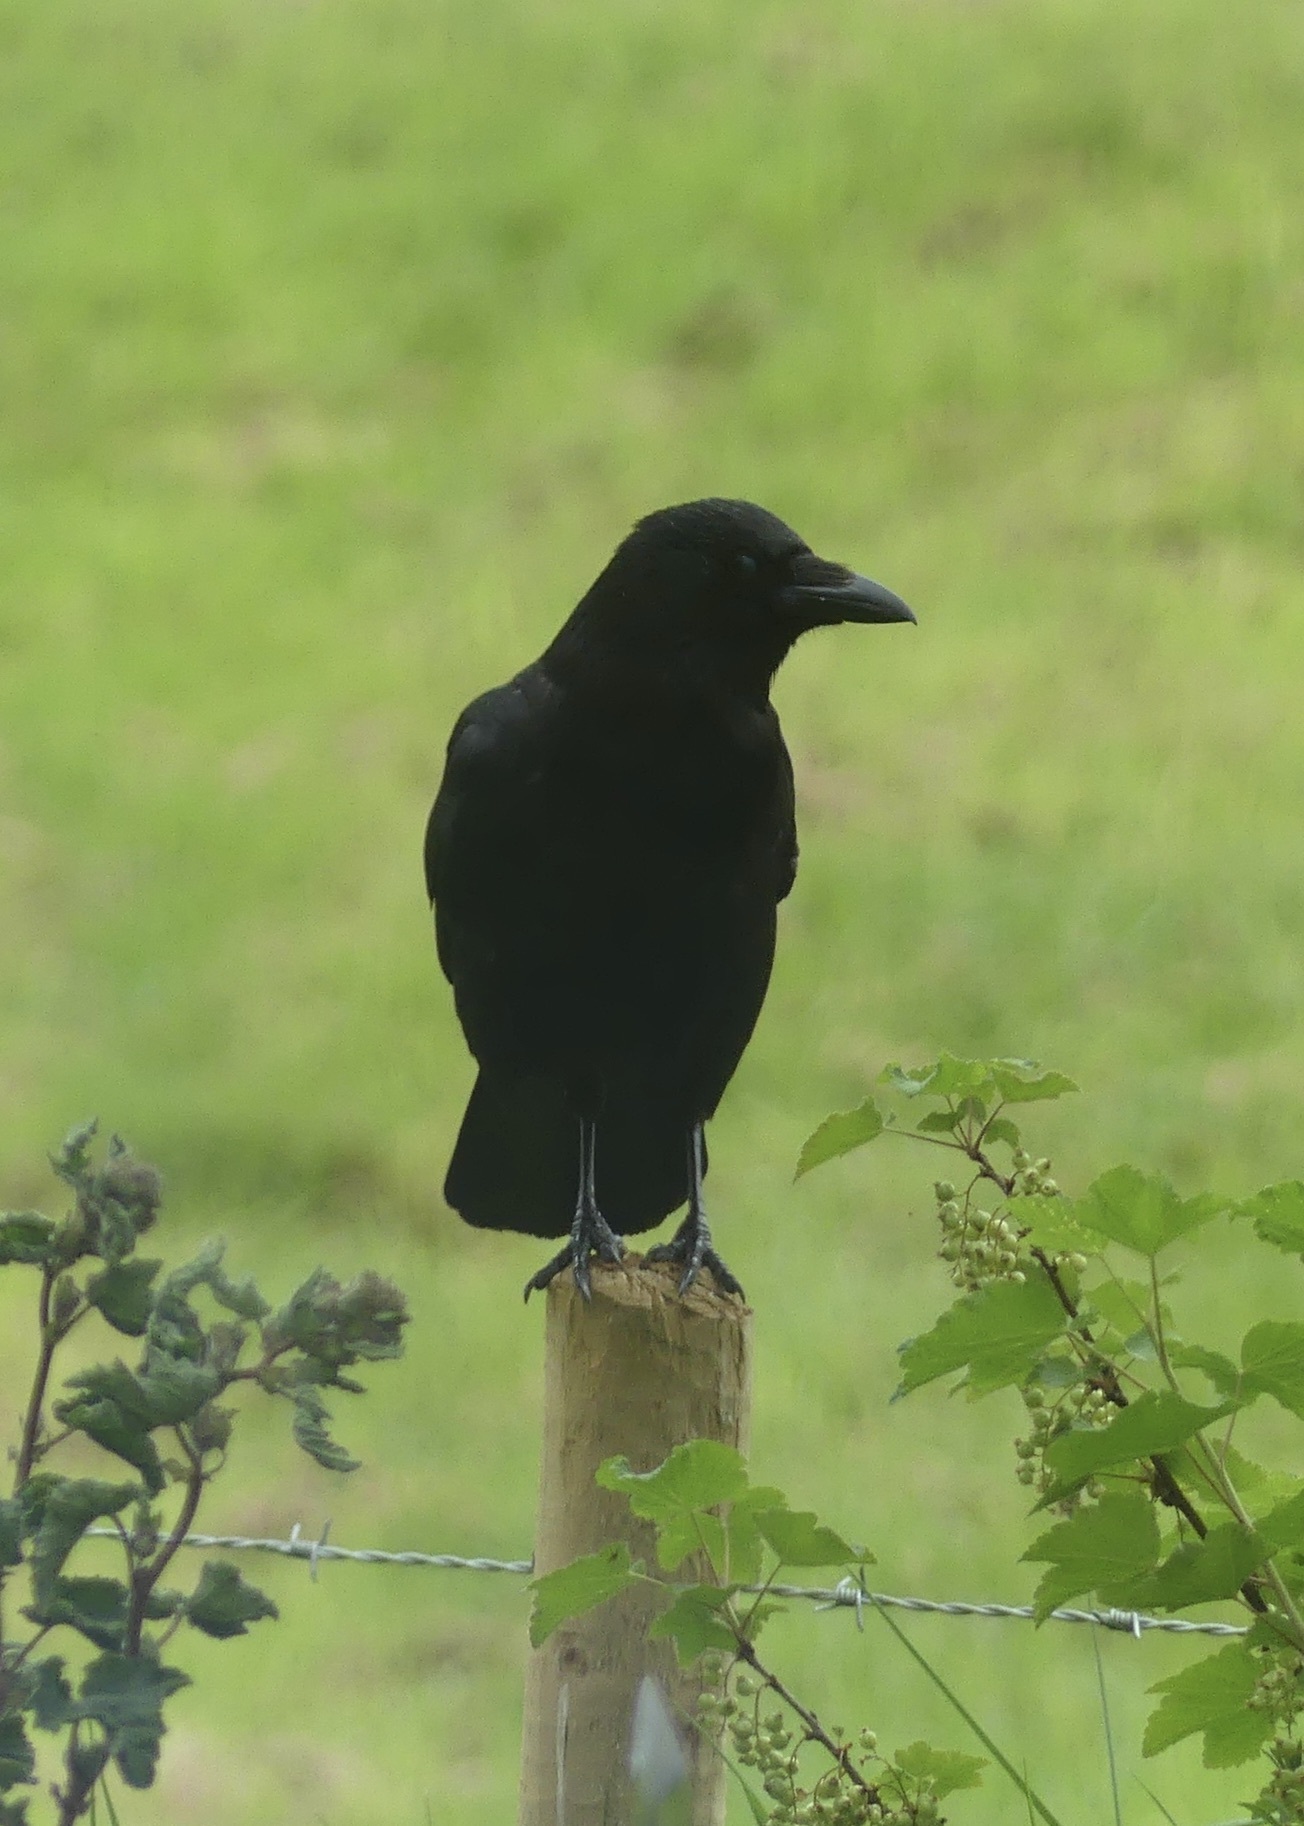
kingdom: Animalia
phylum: Chordata
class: Aves
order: Passeriformes
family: Corvidae
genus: Corvus
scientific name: Corvus corone
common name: Carrion crow
